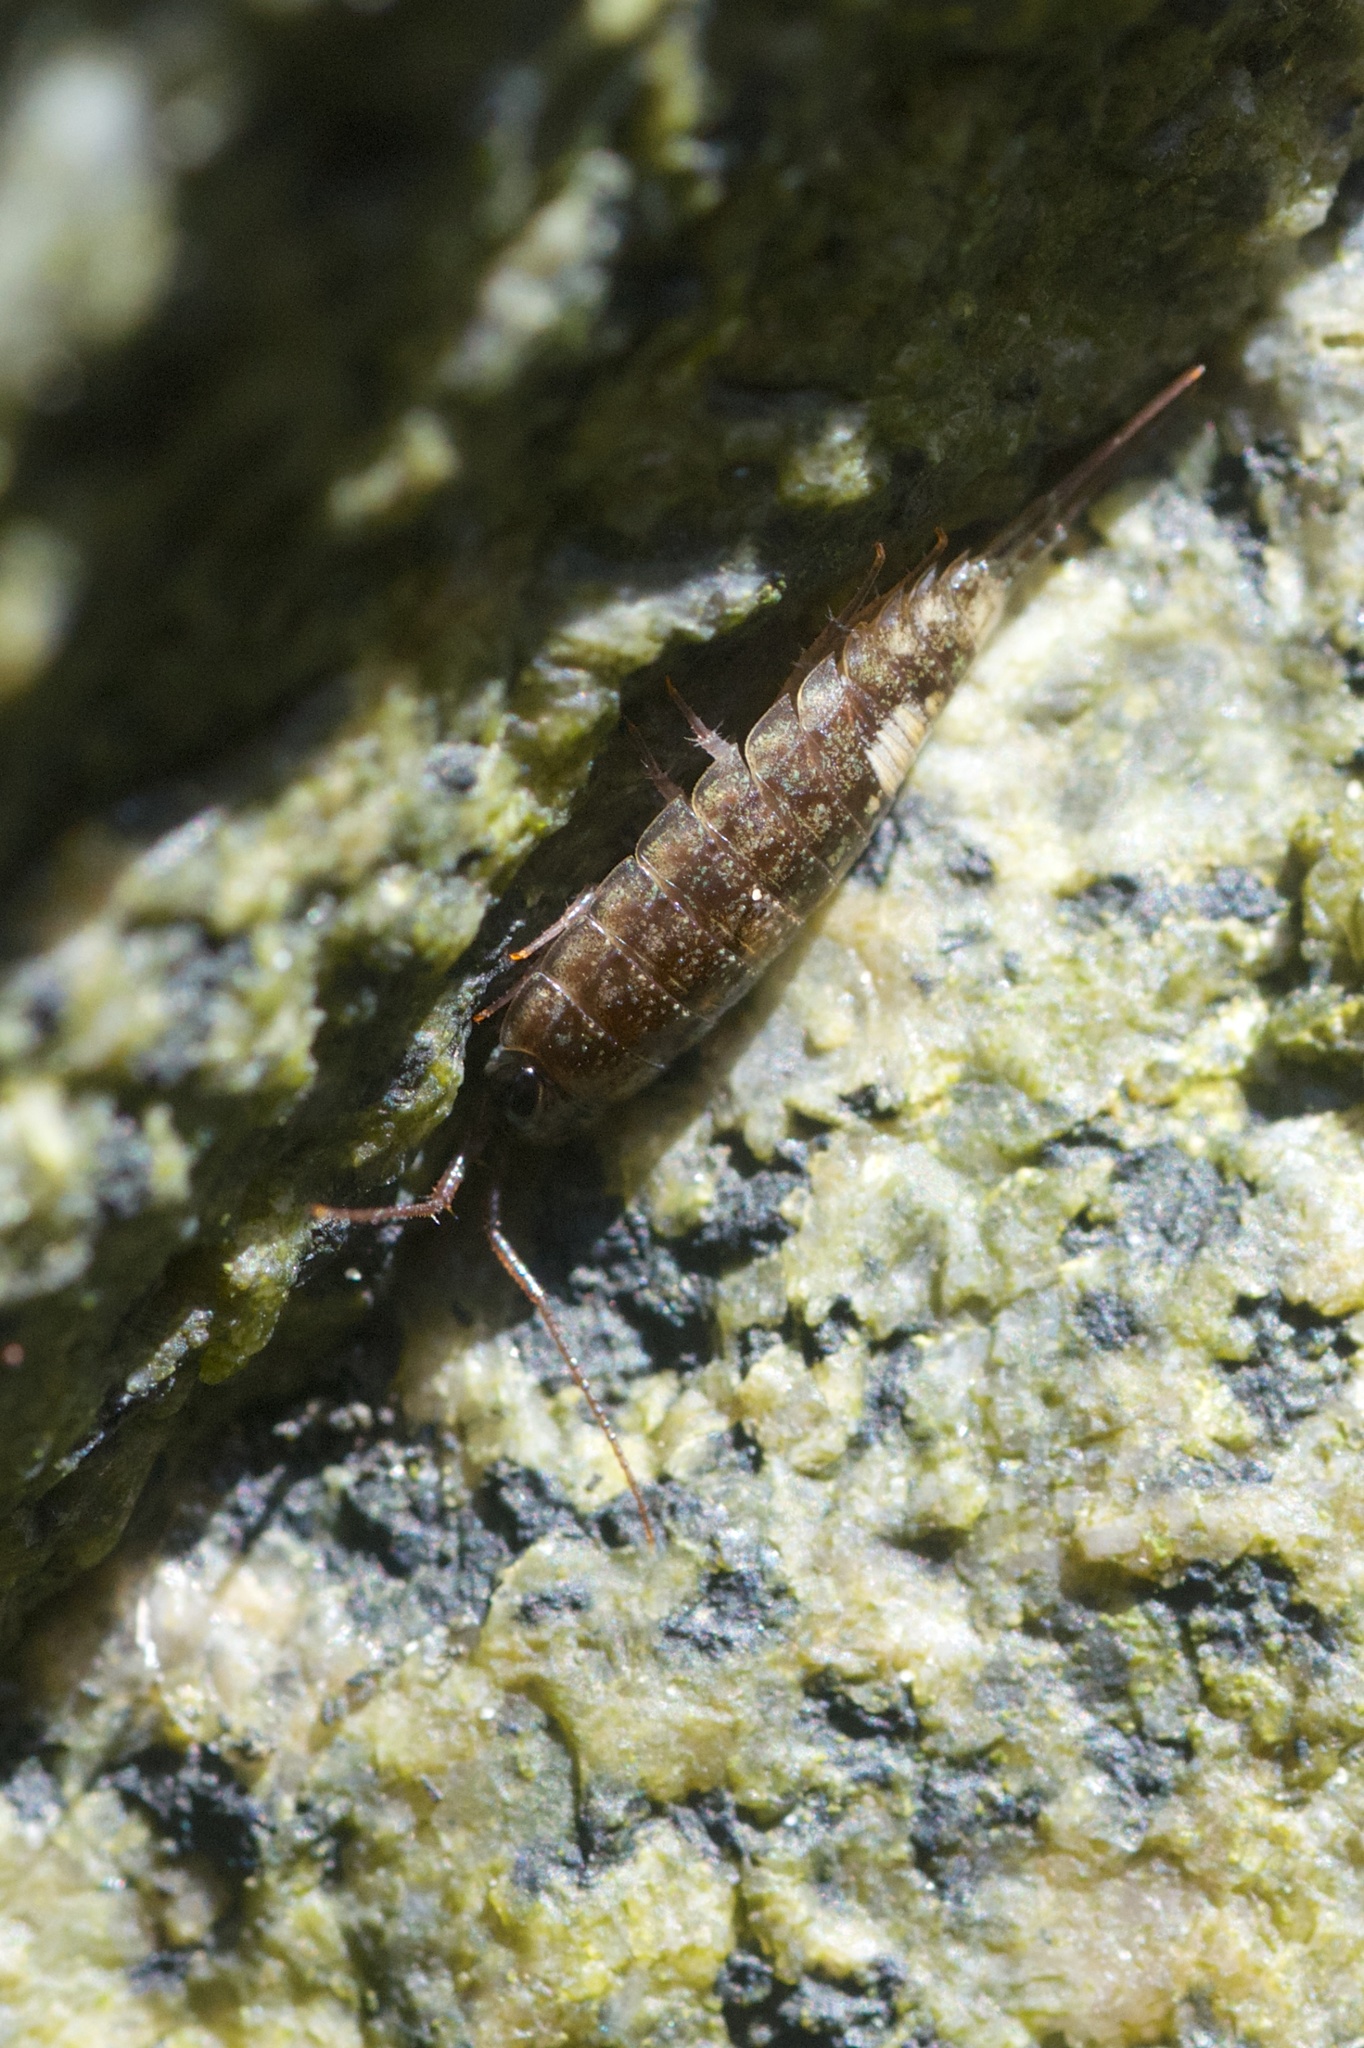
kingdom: Animalia
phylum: Arthropoda
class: Malacostraca
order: Isopoda
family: Ligiidae
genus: Ligia
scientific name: Ligia occidentalis
